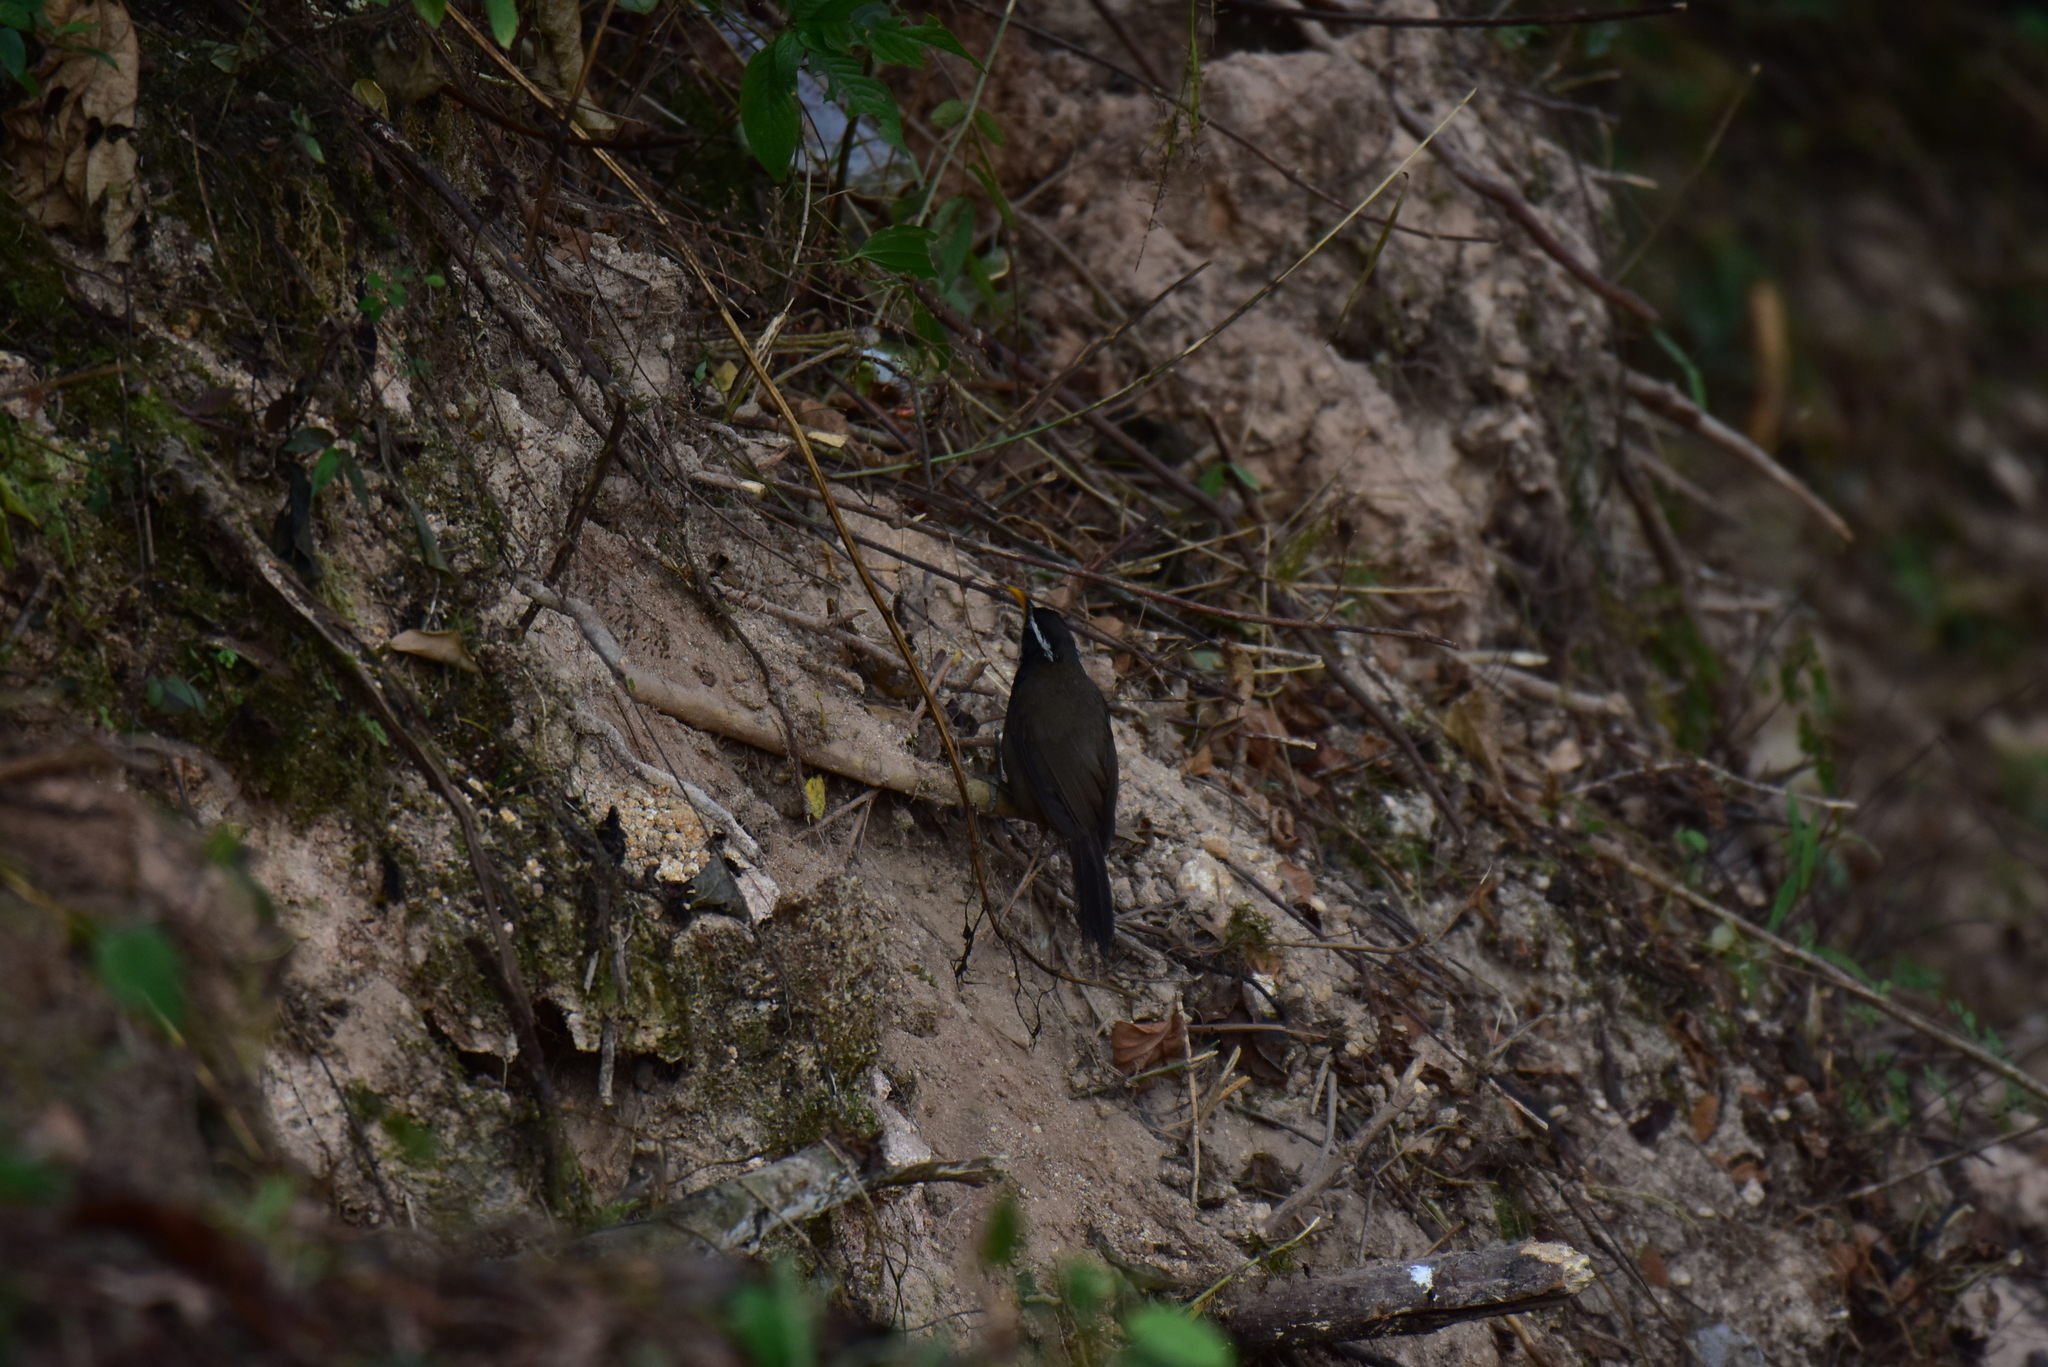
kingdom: Animalia
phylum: Chordata
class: Aves
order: Passeriformes
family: Timaliidae
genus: Pomatorhinus
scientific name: Pomatorhinus horsfieldii
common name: Indian scimitar babbler
